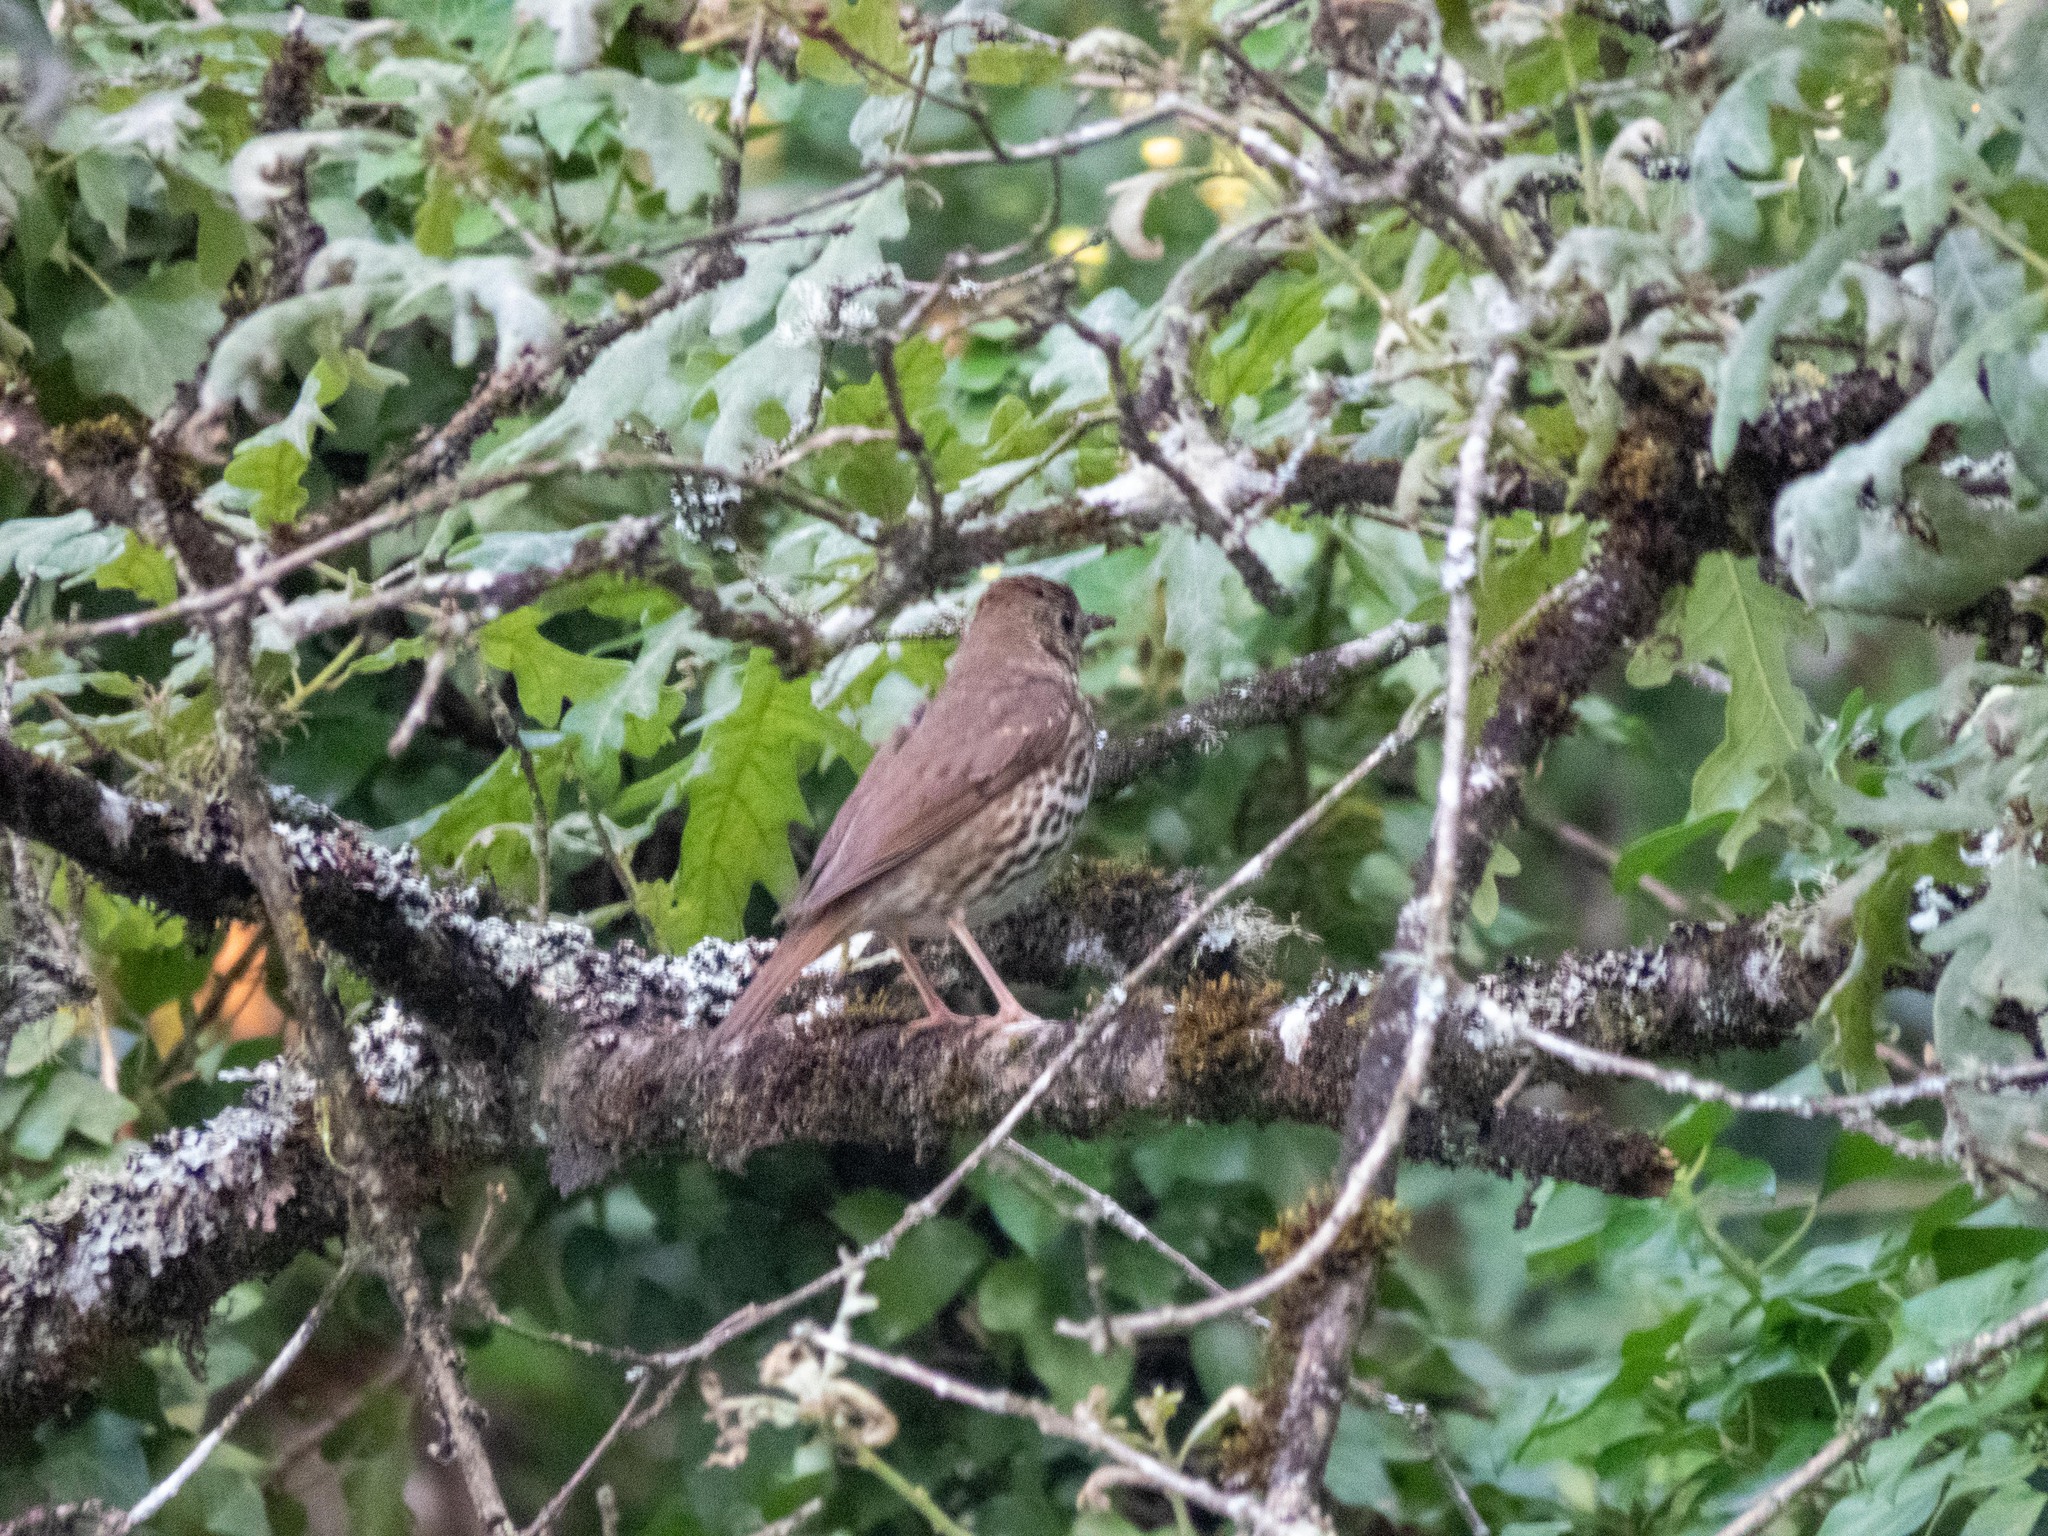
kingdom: Animalia
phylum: Chordata
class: Aves
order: Passeriformes
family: Turdidae
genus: Turdus
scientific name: Turdus philomelos
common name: Song thrush
